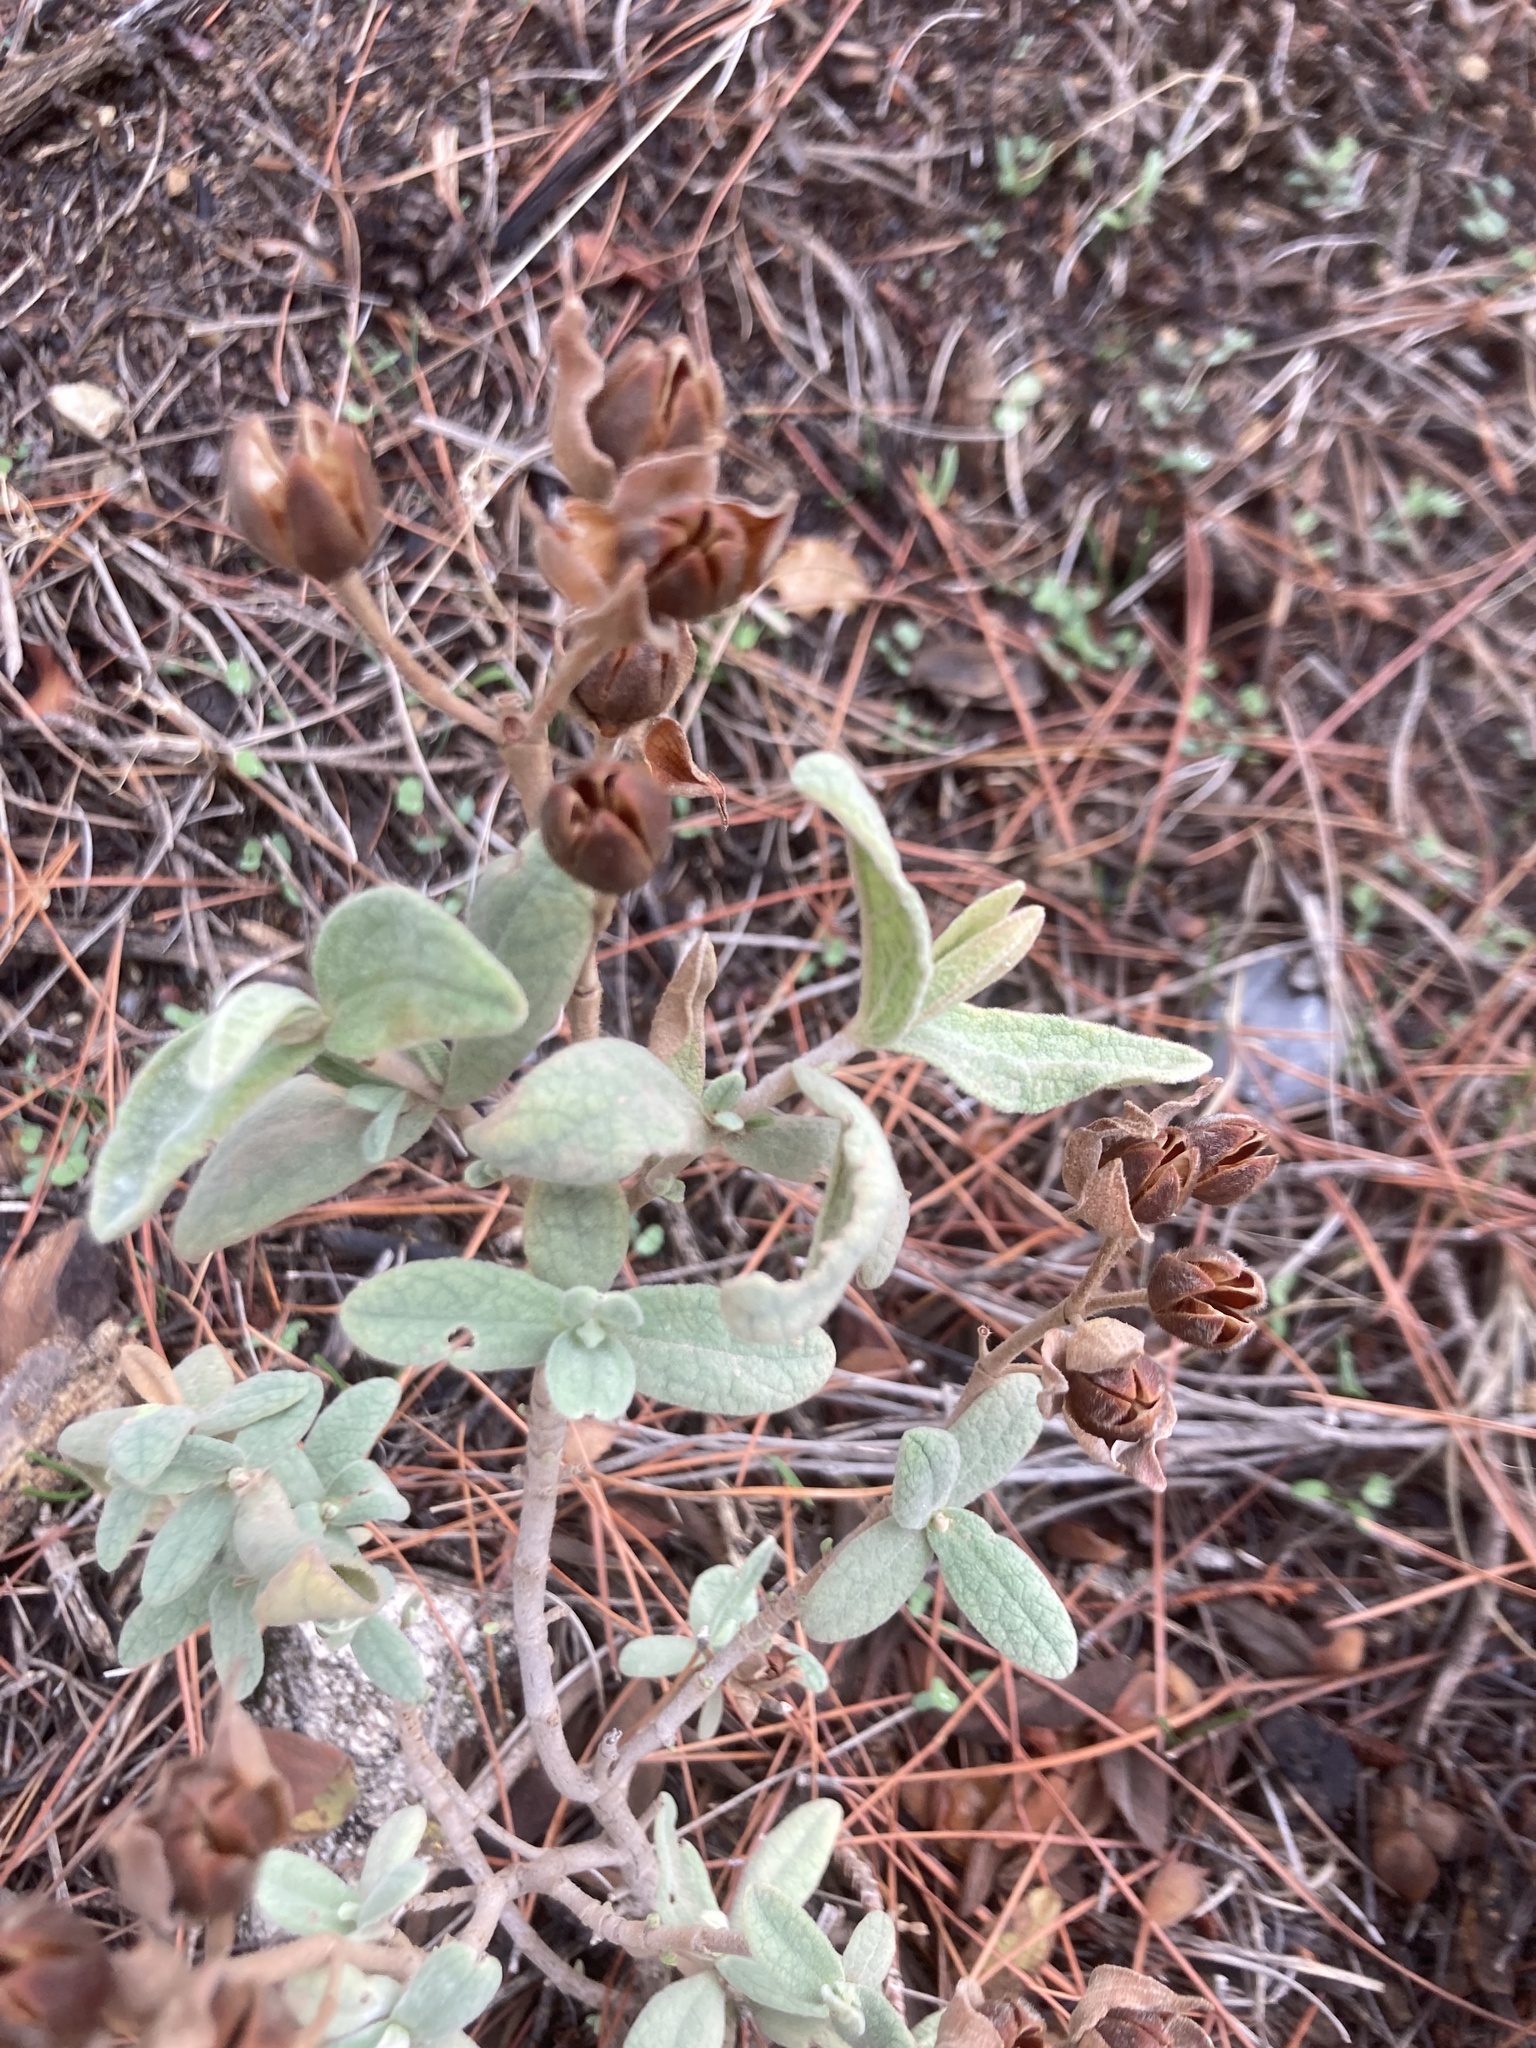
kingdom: Plantae
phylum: Tracheophyta
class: Magnoliopsida
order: Malvales
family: Cistaceae
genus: Cistus
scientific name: Cistus albidus
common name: White-leaf rock-rose
